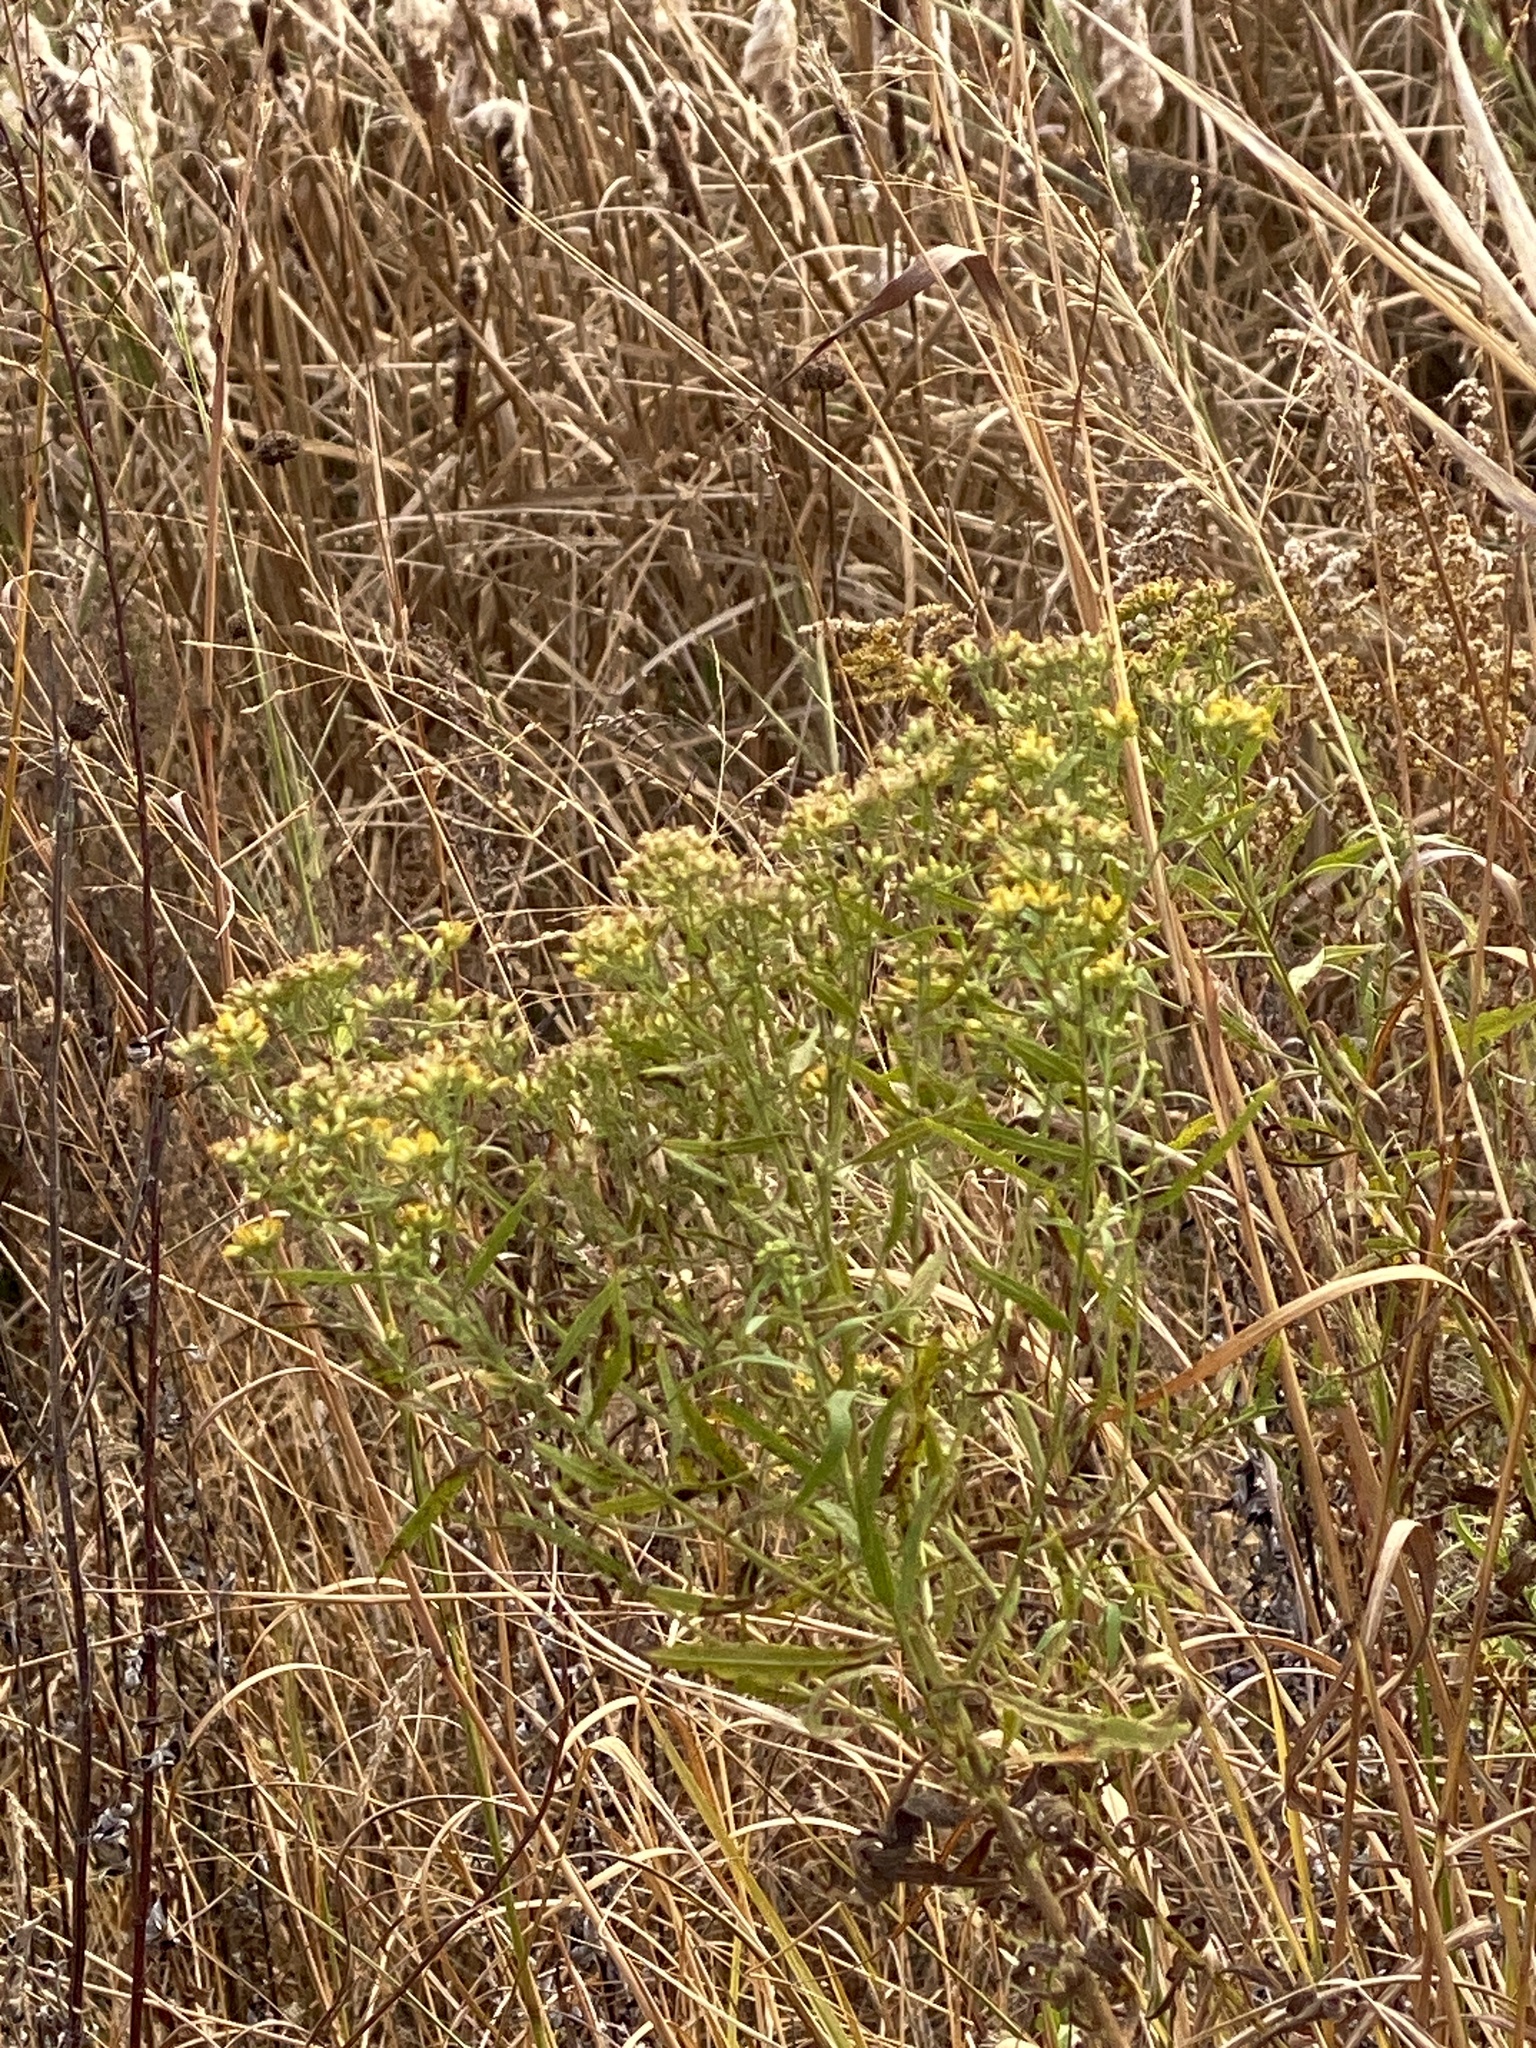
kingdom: Plantae
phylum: Tracheophyta
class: Magnoliopsida
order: Asterales
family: Asteraceae
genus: Euthamia
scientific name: Euthamia graminifolia
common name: Common goldentop
